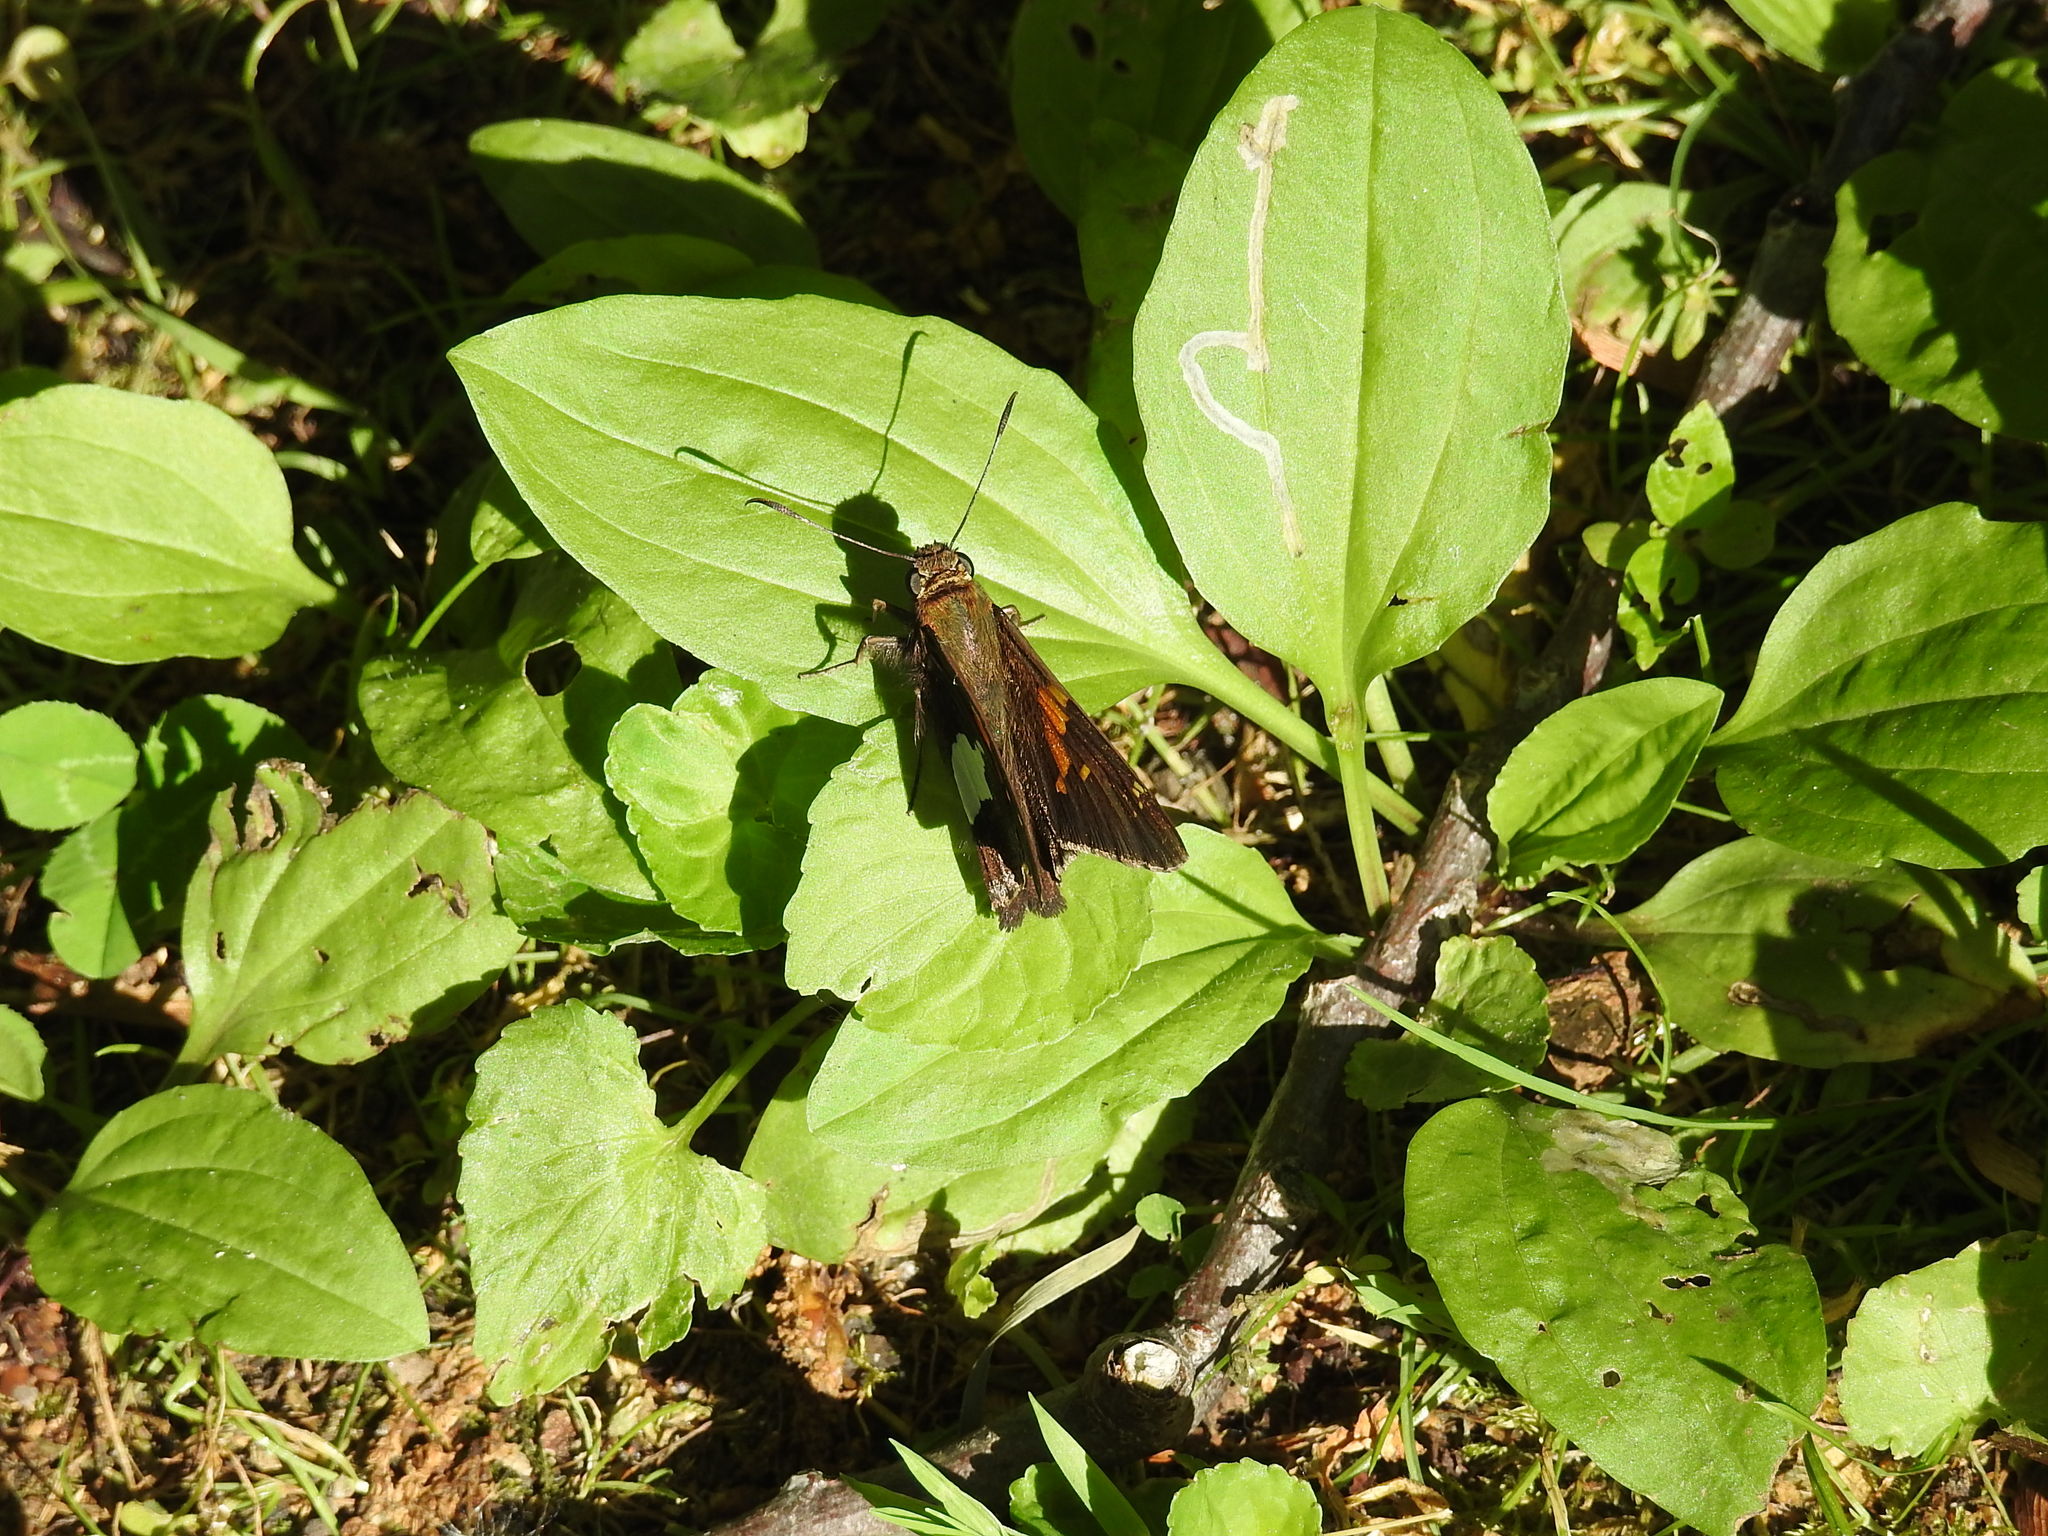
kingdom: Animalia
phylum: Arthropoda
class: Insecta
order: Lepidoptera
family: Hesperiidae
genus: Epargyreus
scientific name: Epargyreus clarus
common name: Silver-spotted skipper
